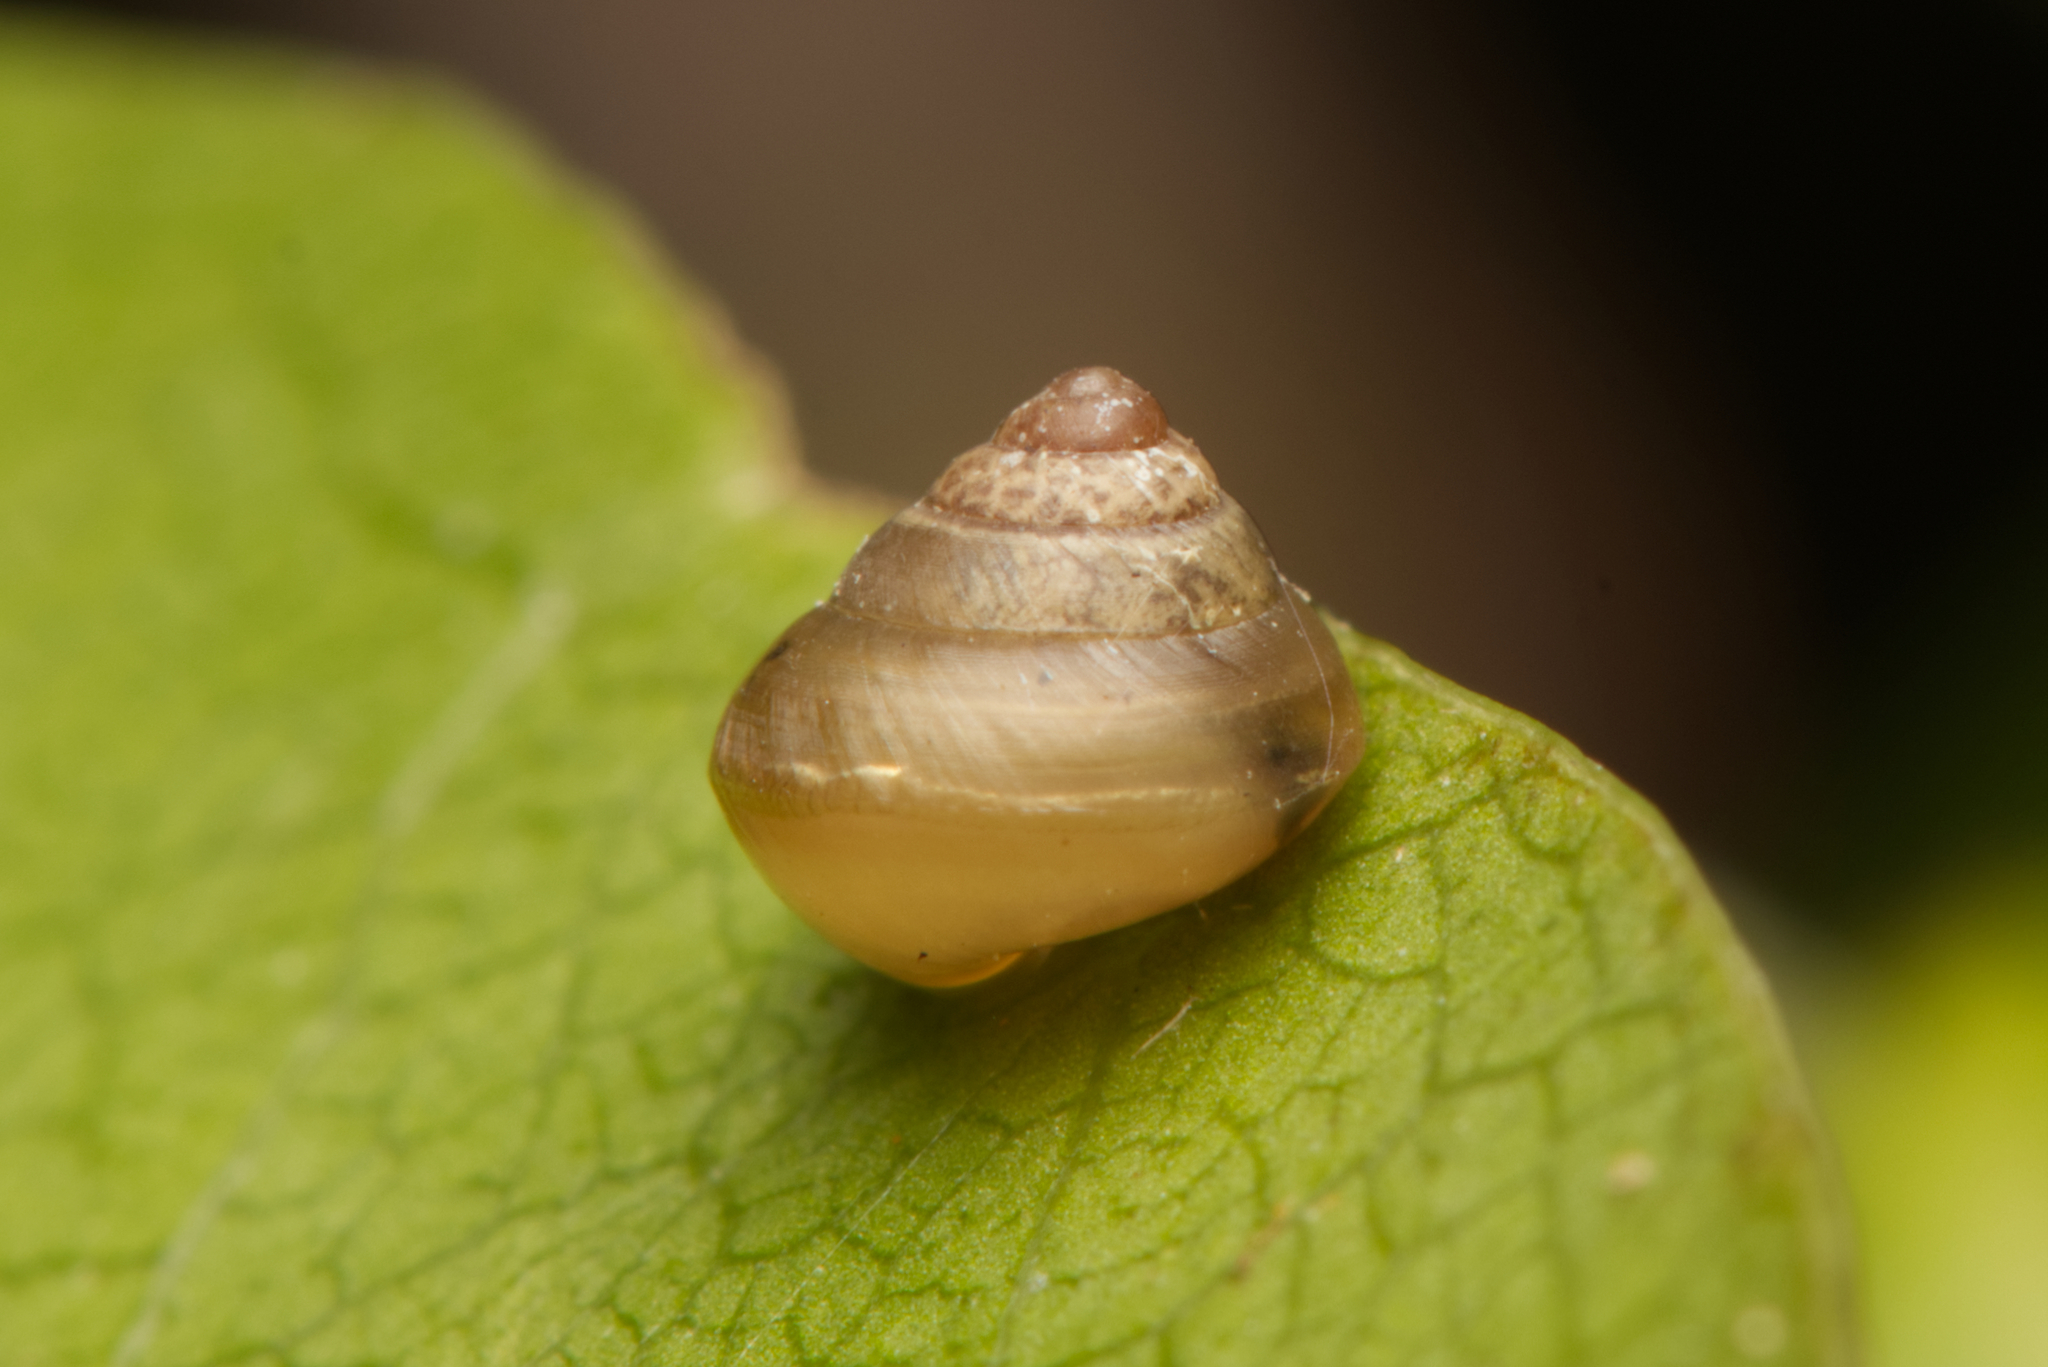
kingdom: Animalia
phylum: Mollusca
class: Gastropoda
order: Stylommatophora
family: Euconulidae
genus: Coneuplecta
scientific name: Coneuplecta calculosa
